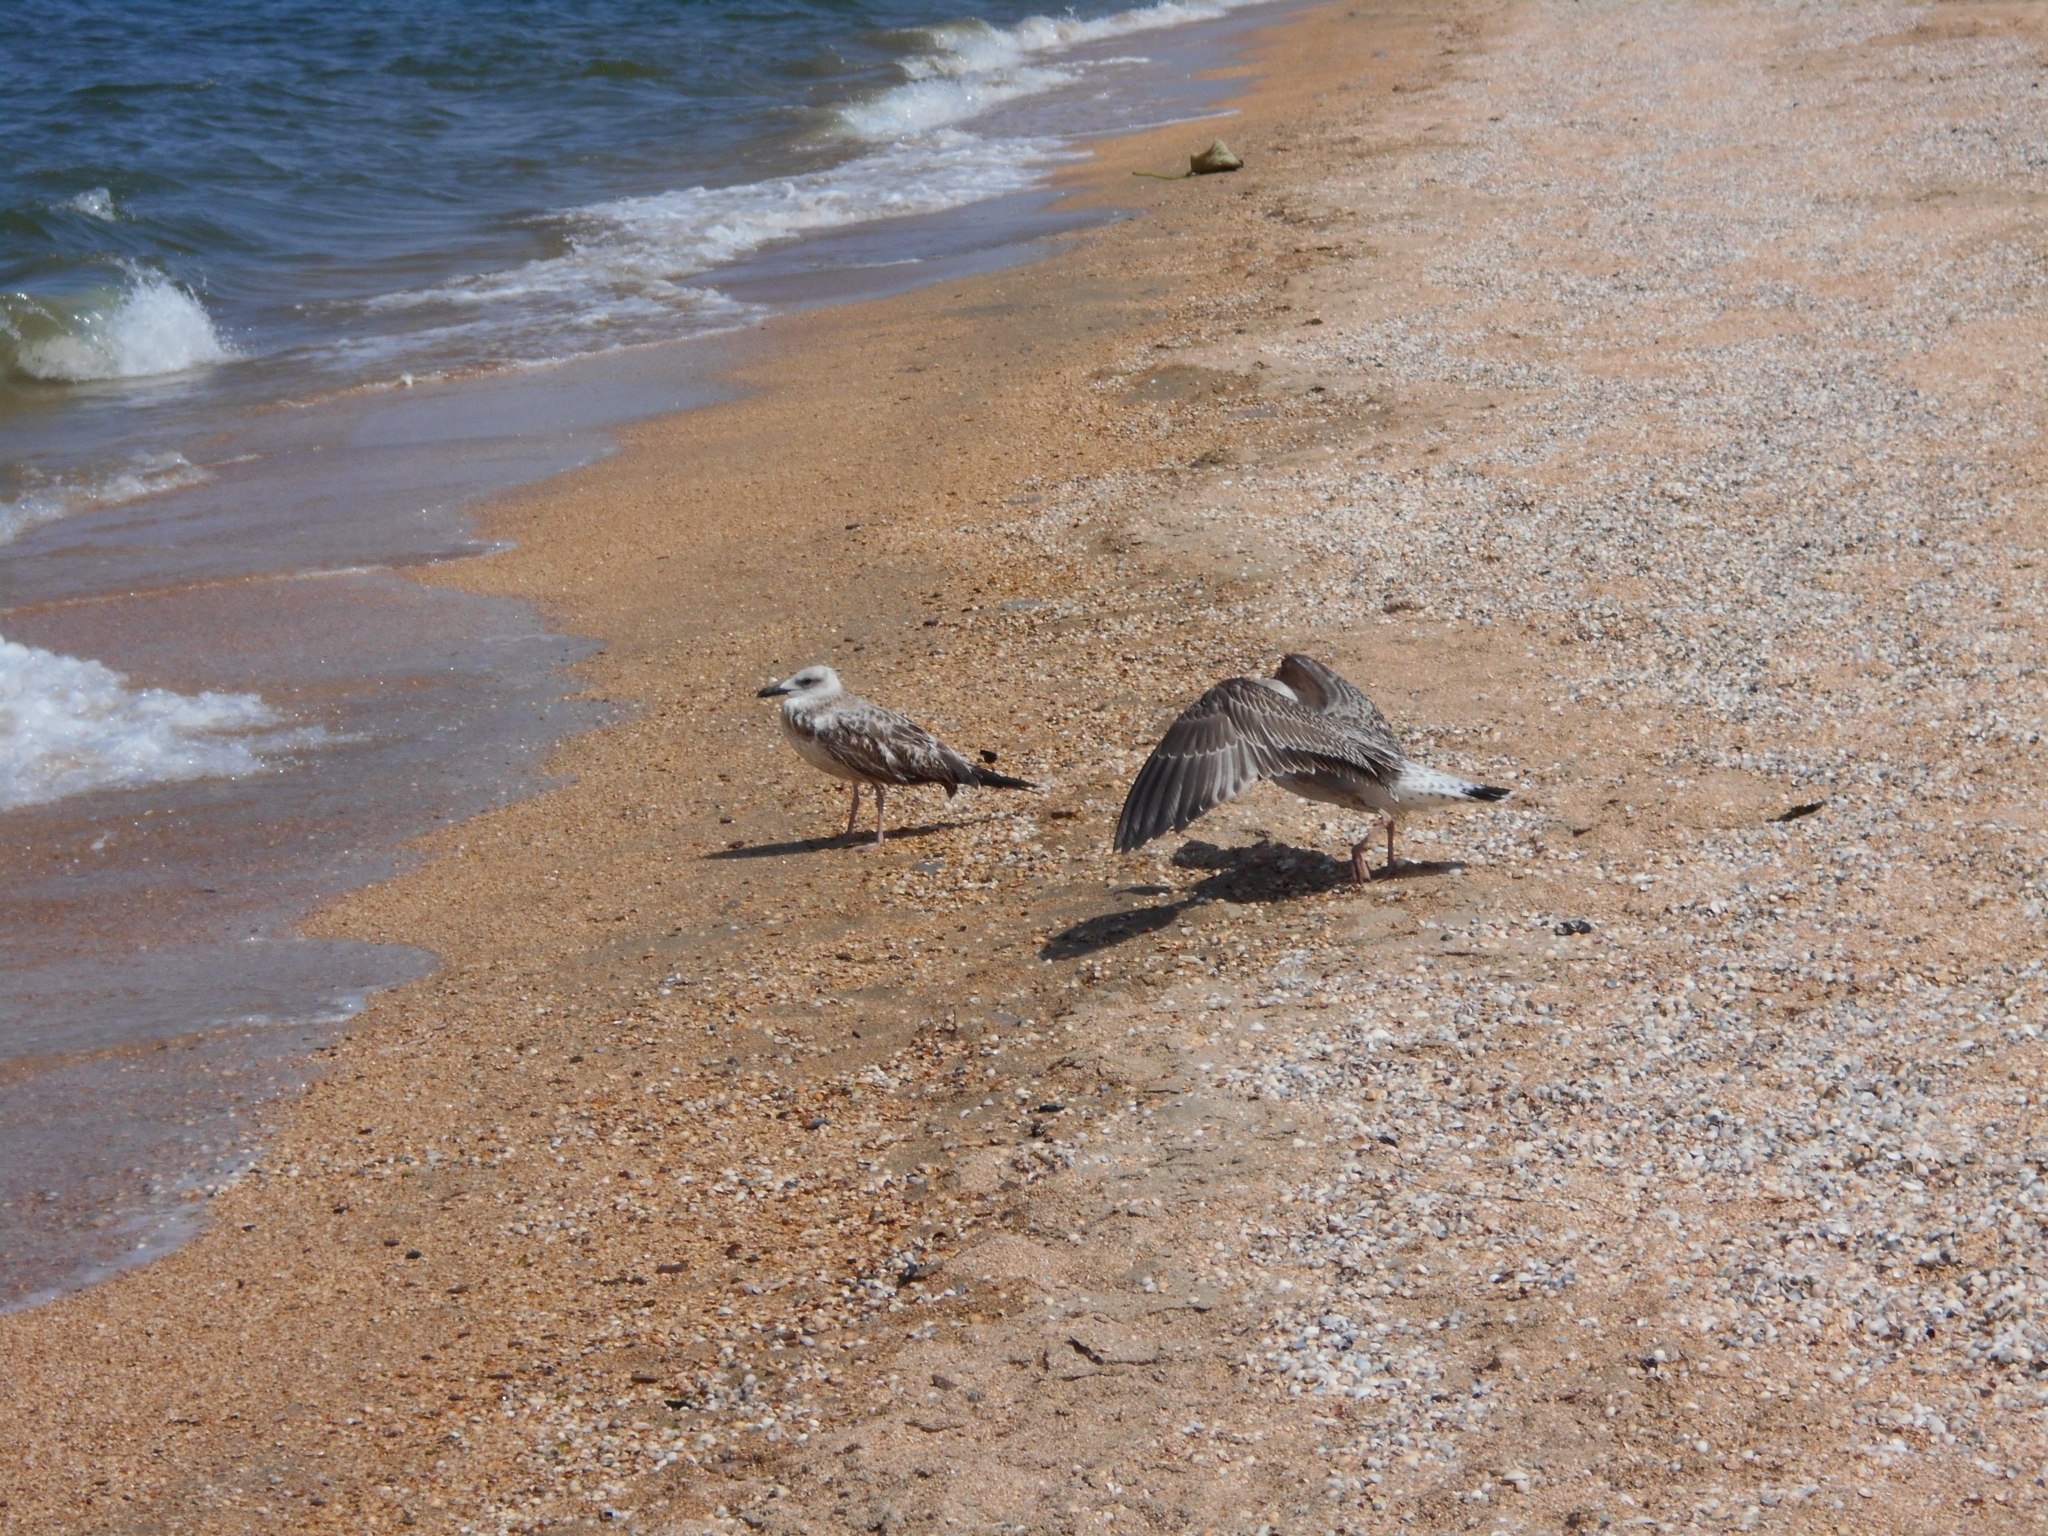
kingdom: Animalia
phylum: Chordata
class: Aves
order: Charadriiformes
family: Laridae
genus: Larus
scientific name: Larus cachinnans
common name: Caspian gull
